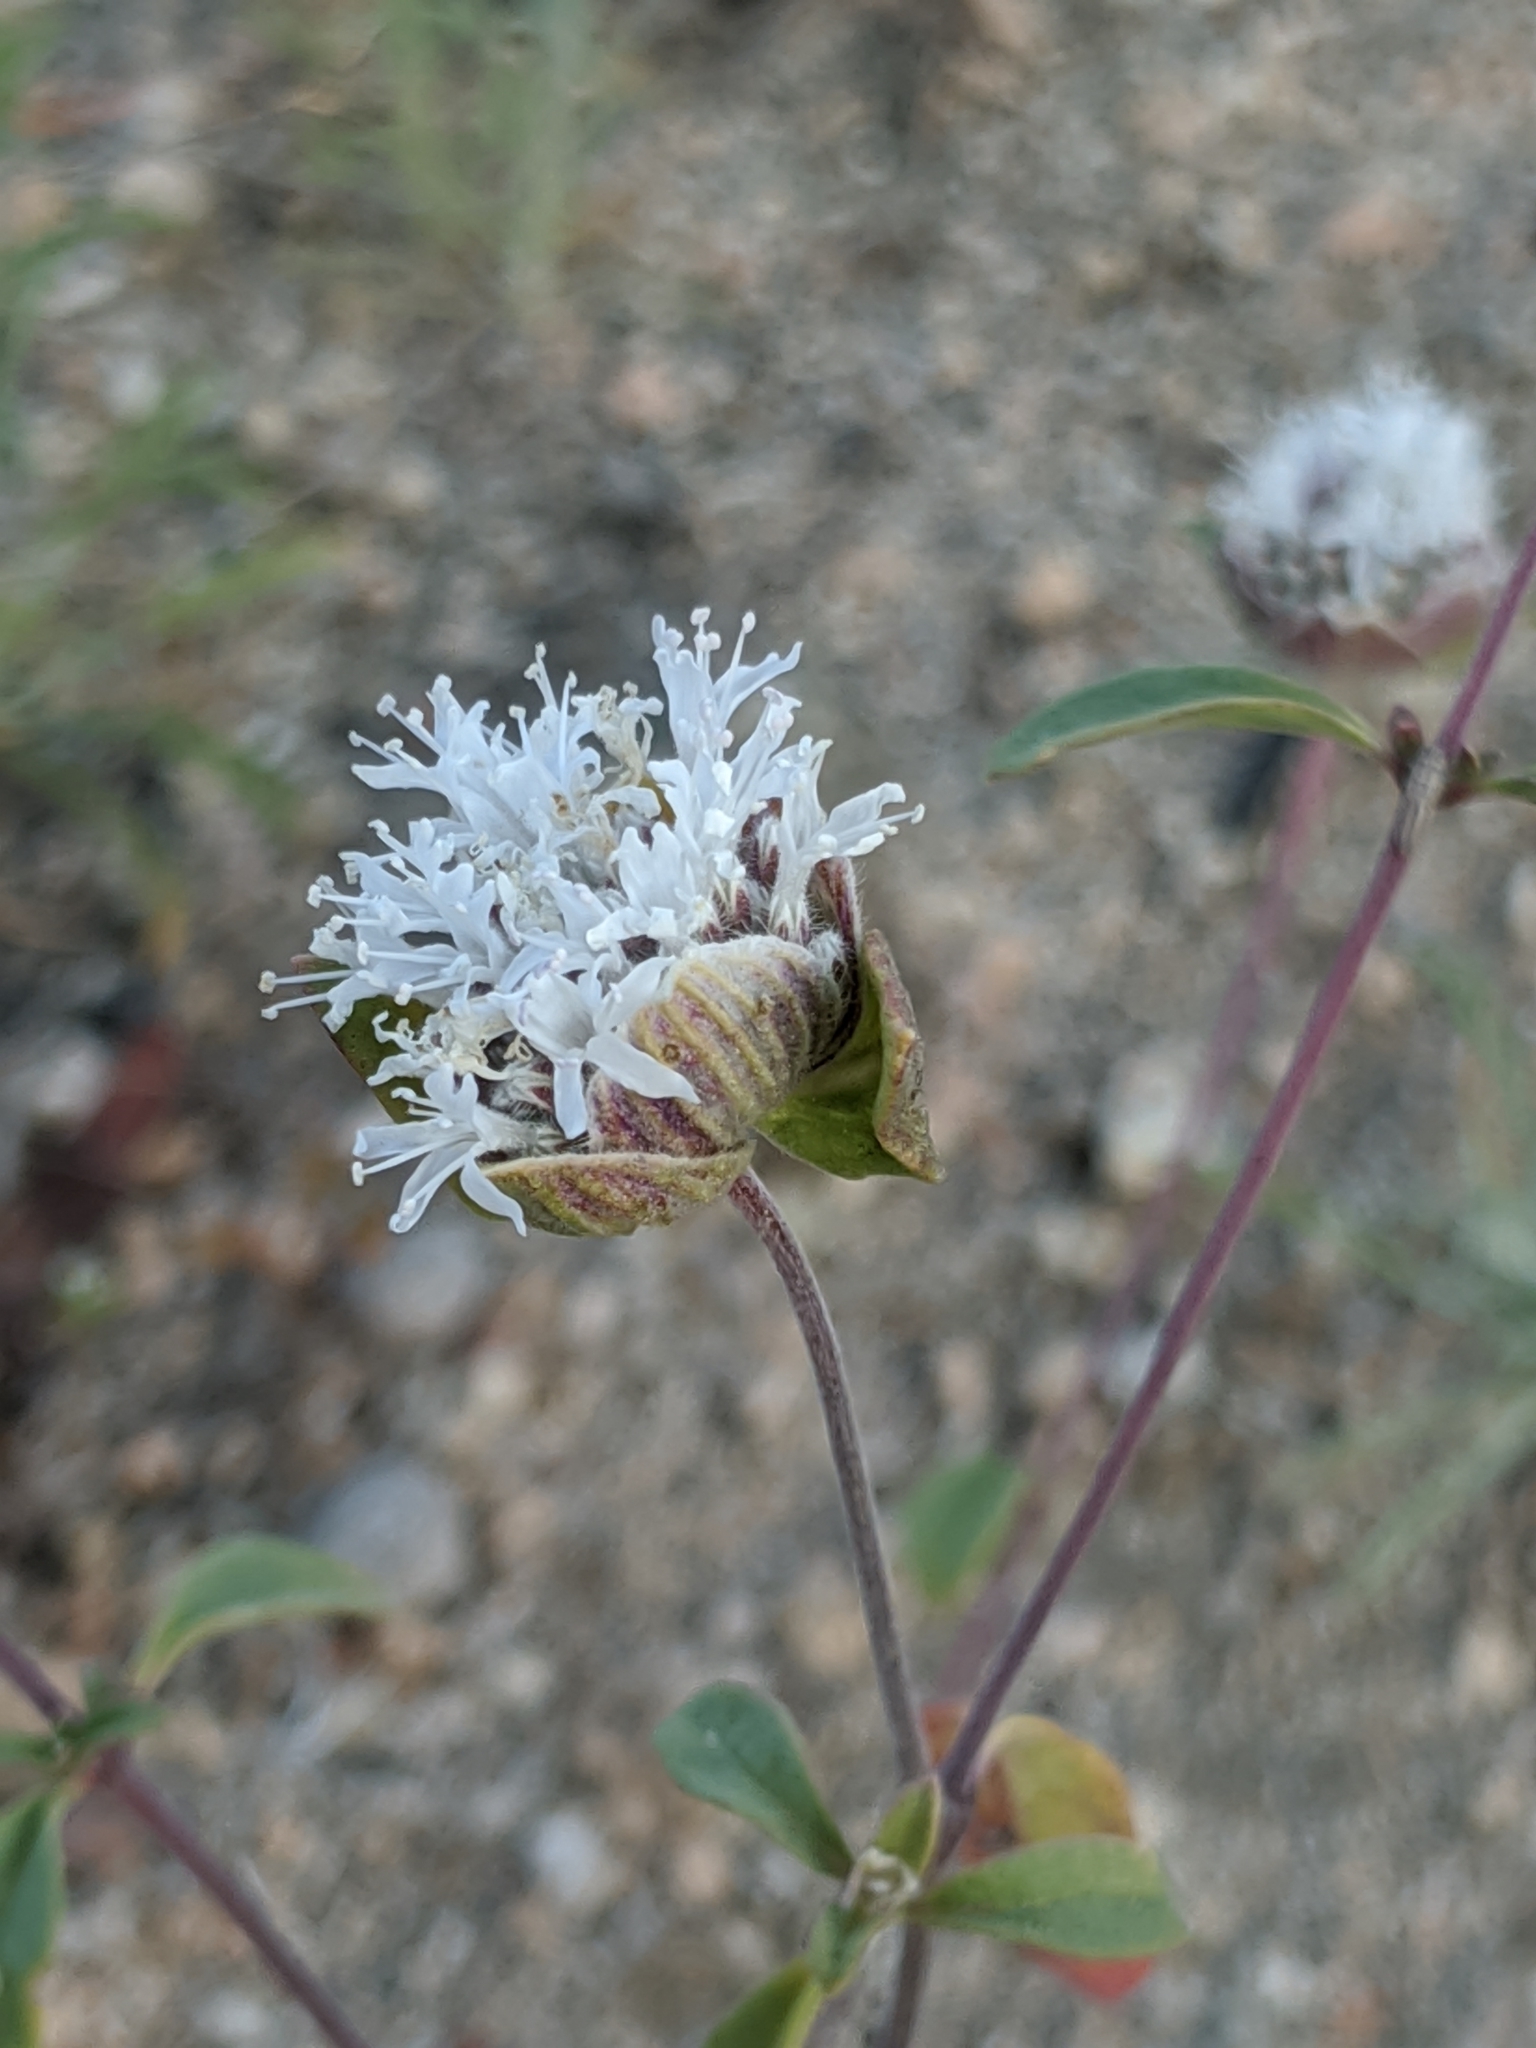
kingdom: Plantae
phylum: Tracheophyta
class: Magnoliopsida
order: Lamiales
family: Lamiaceae
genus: Monardella
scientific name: Monardella exilis
